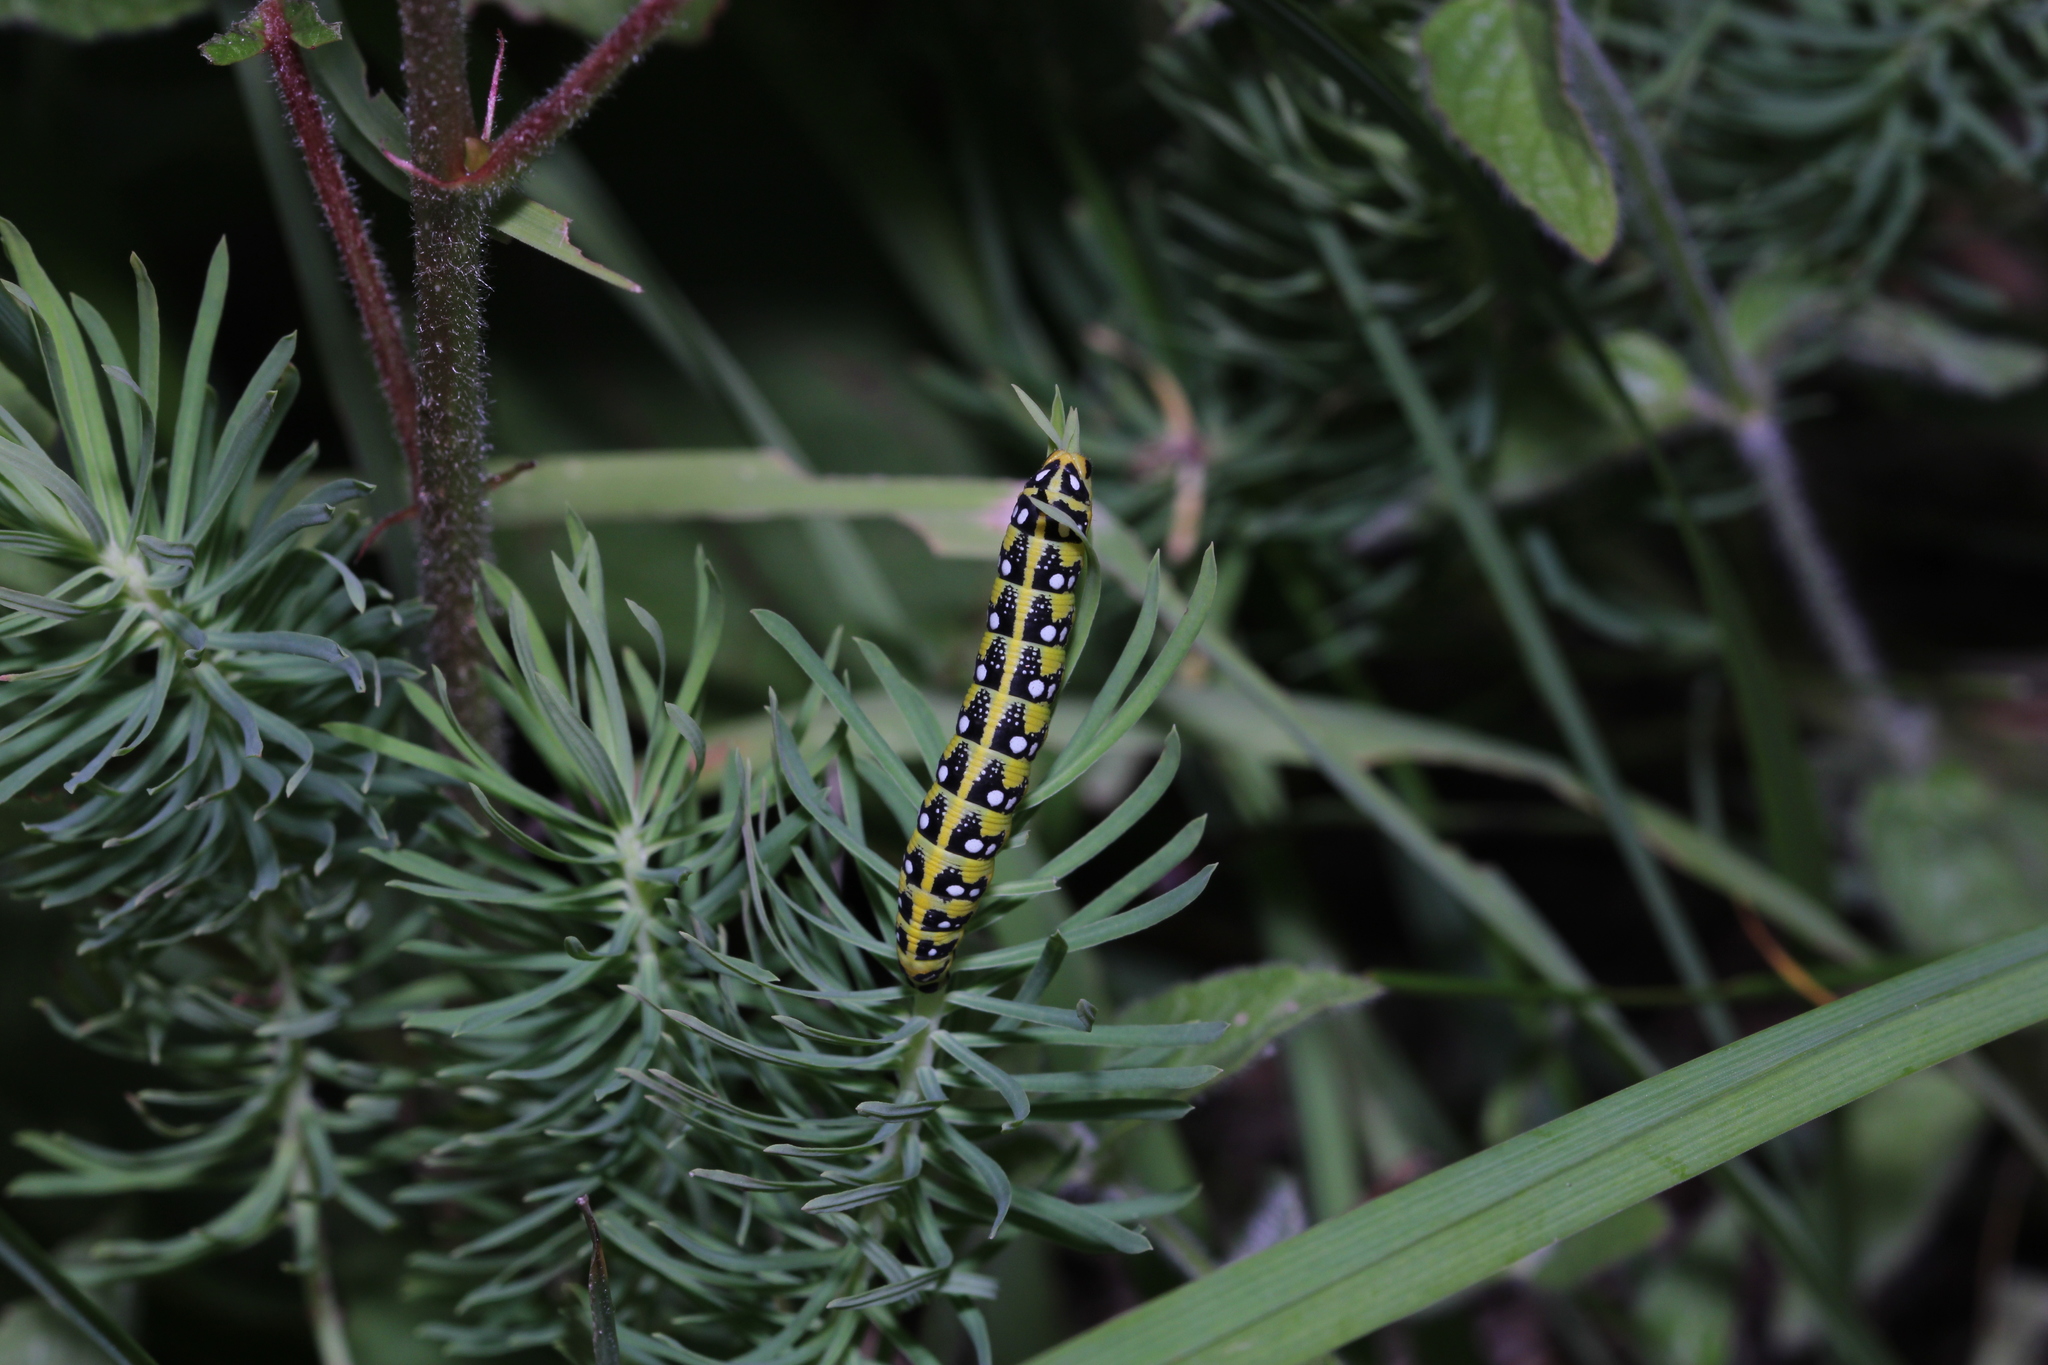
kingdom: Animalia
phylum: Arthropoda
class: Insecta
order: Lepidoptera
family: Sphingidae
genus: Hyles
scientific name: Hyles euphorbiae
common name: Spurge hawk-moth
